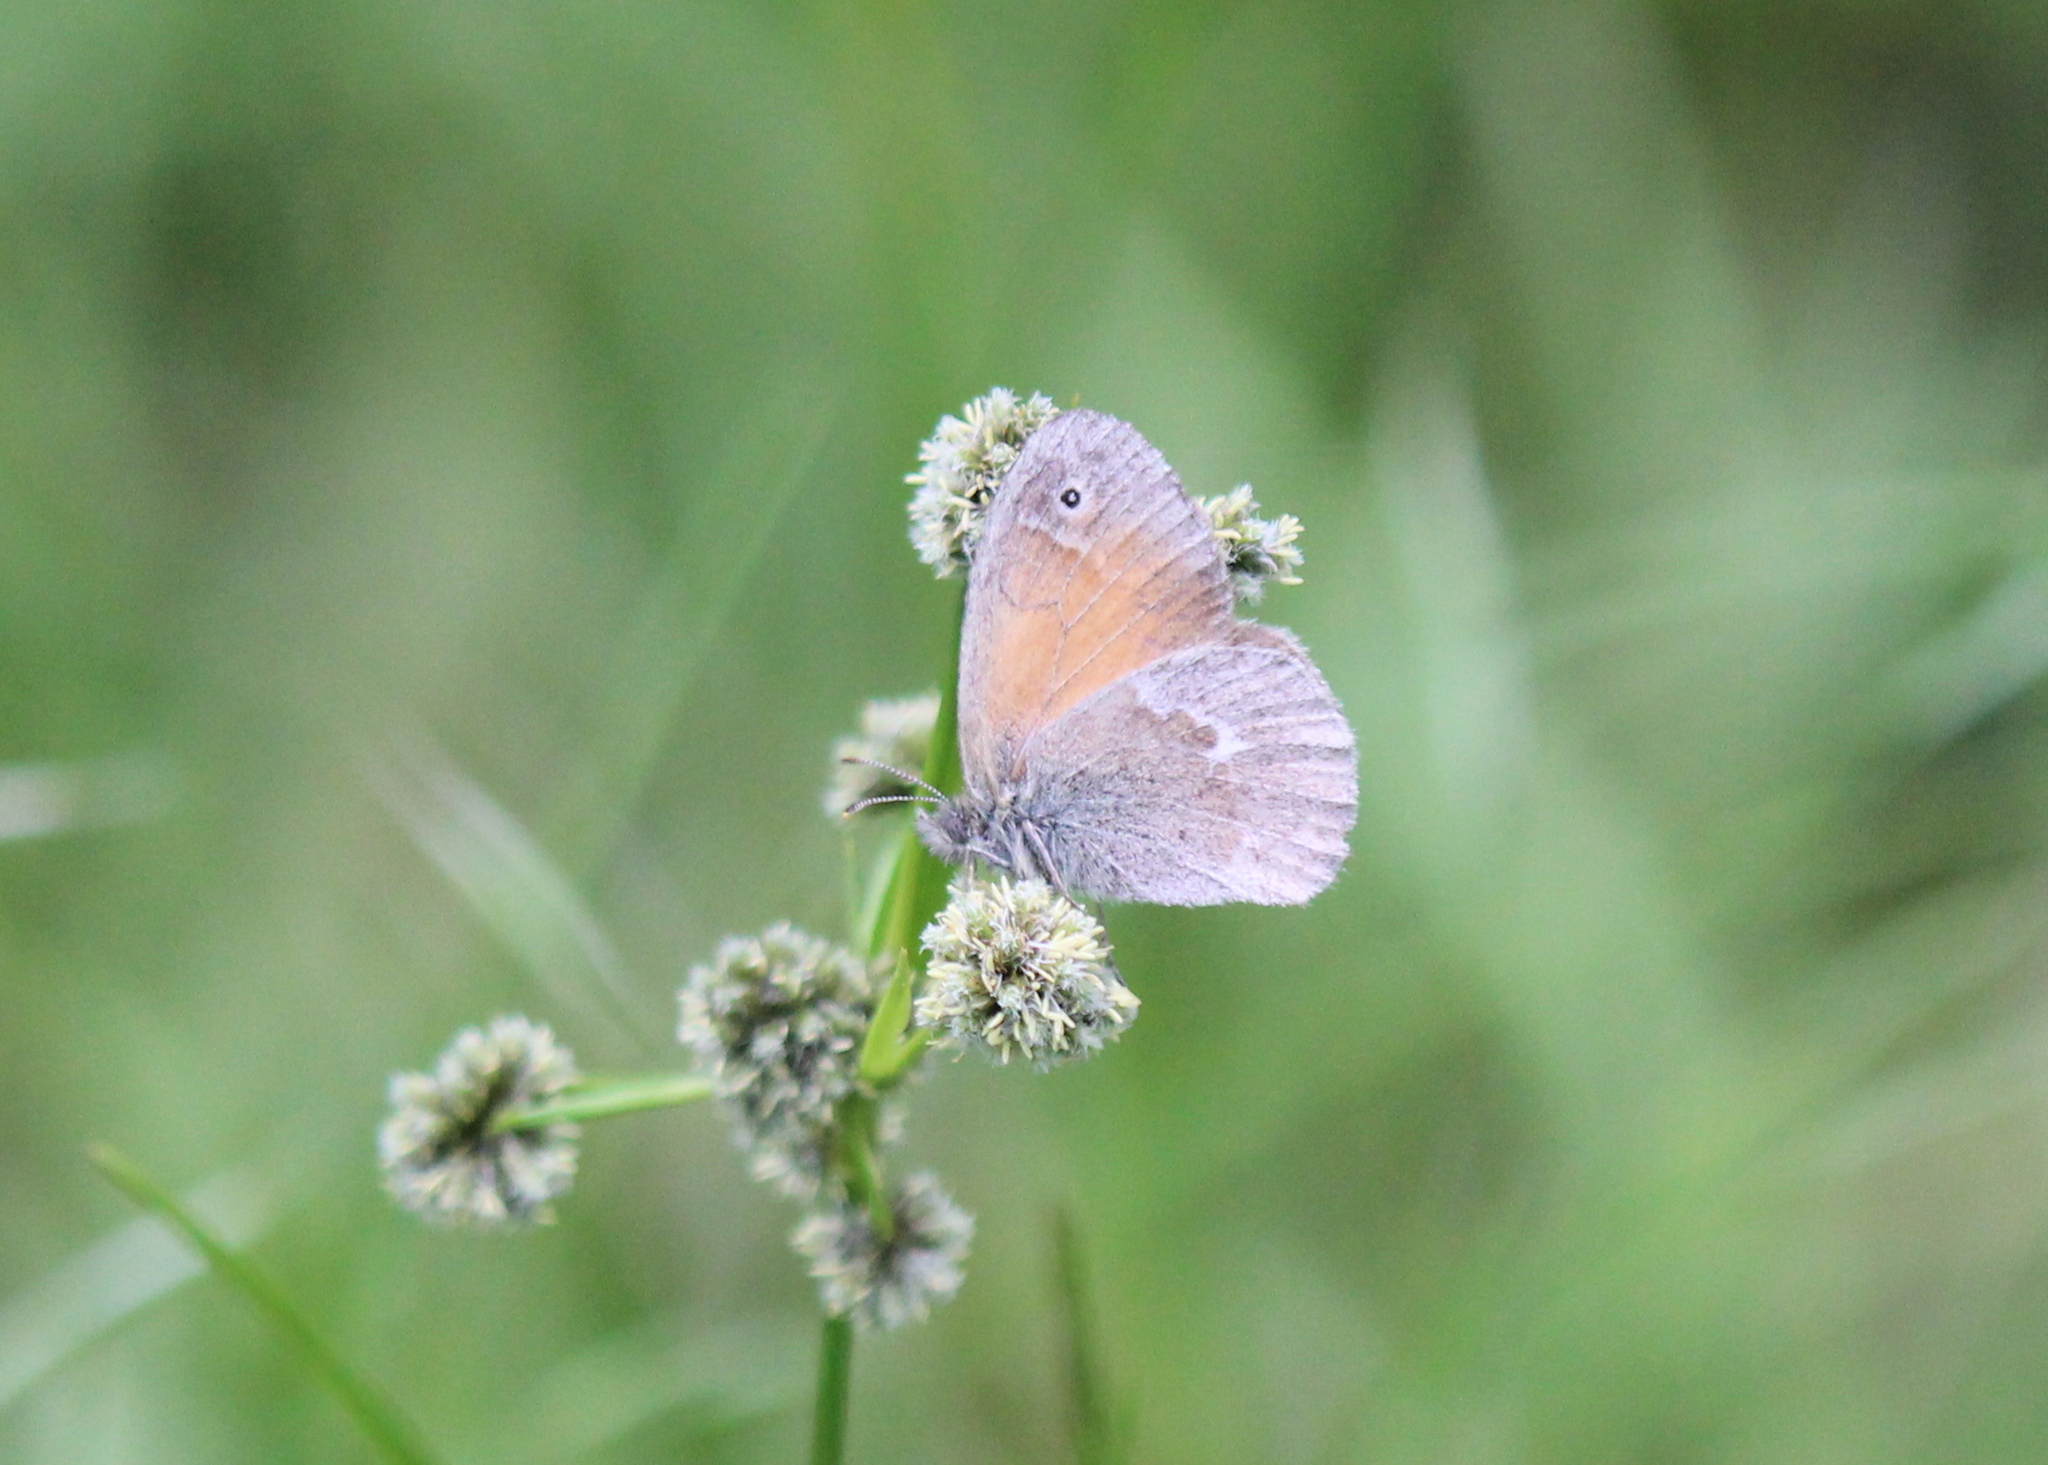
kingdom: Animalia
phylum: Arthropoda
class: Insecta
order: Lepidoptera
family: Nymphalidae
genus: Coenonympha
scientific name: Coenonympha california
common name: Common ringlet
